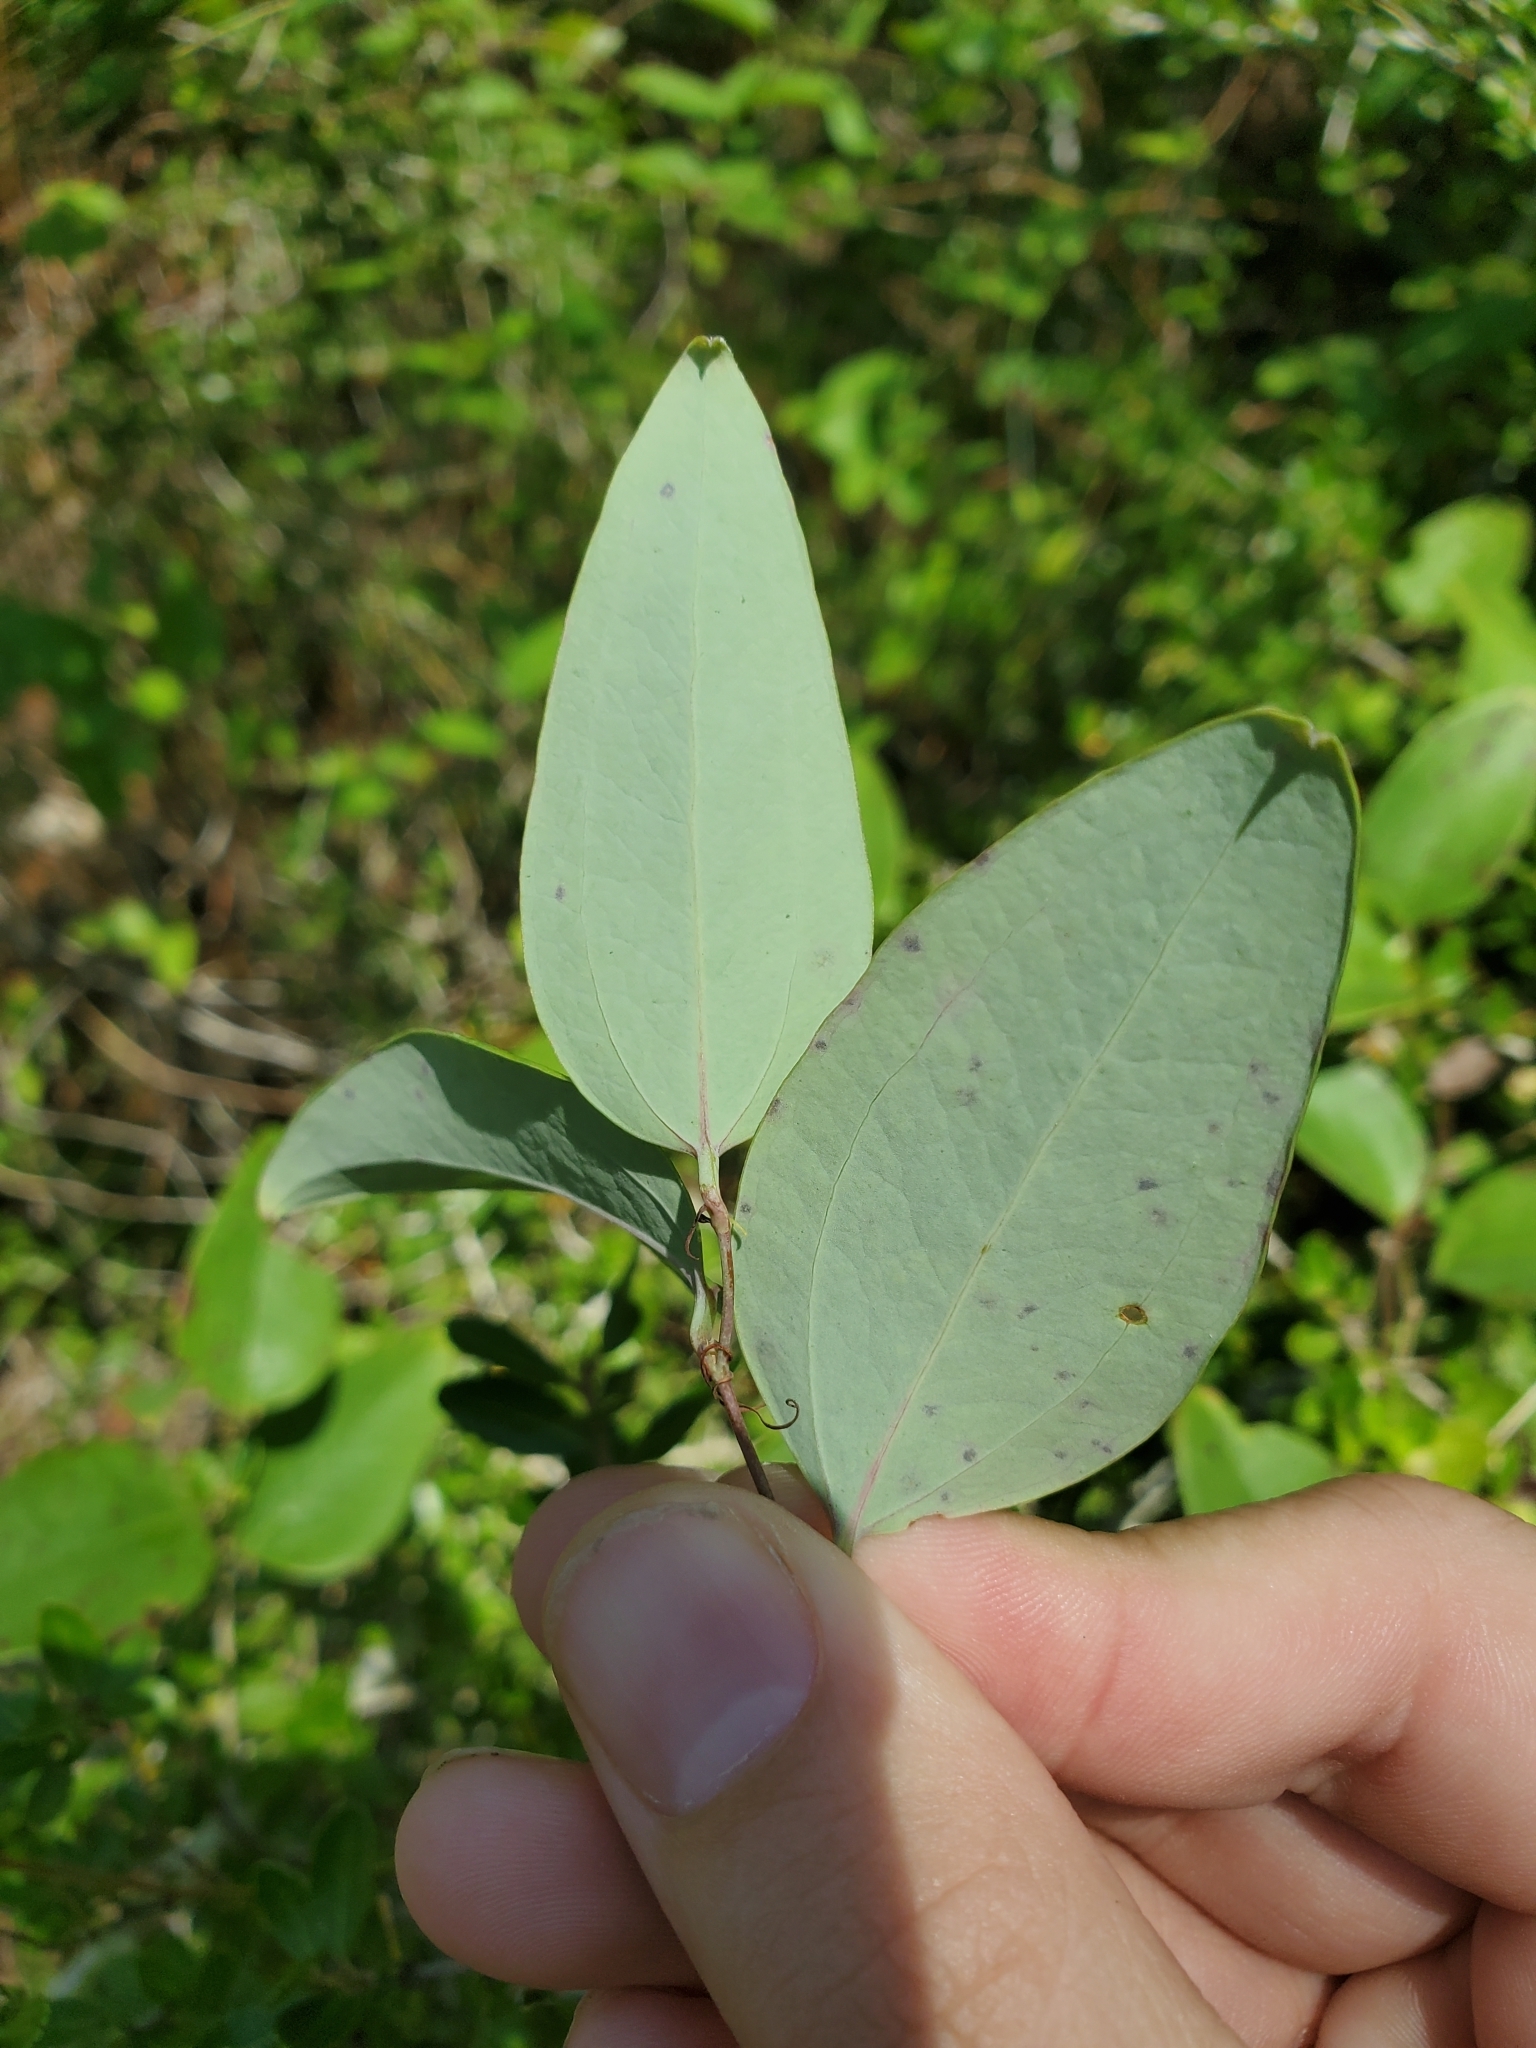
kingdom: Plantae
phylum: Tracheophyta
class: Liliopsida
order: Liliales
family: Smilacaceae
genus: Smilax
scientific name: Smilax glauca
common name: Cat greenbrier
